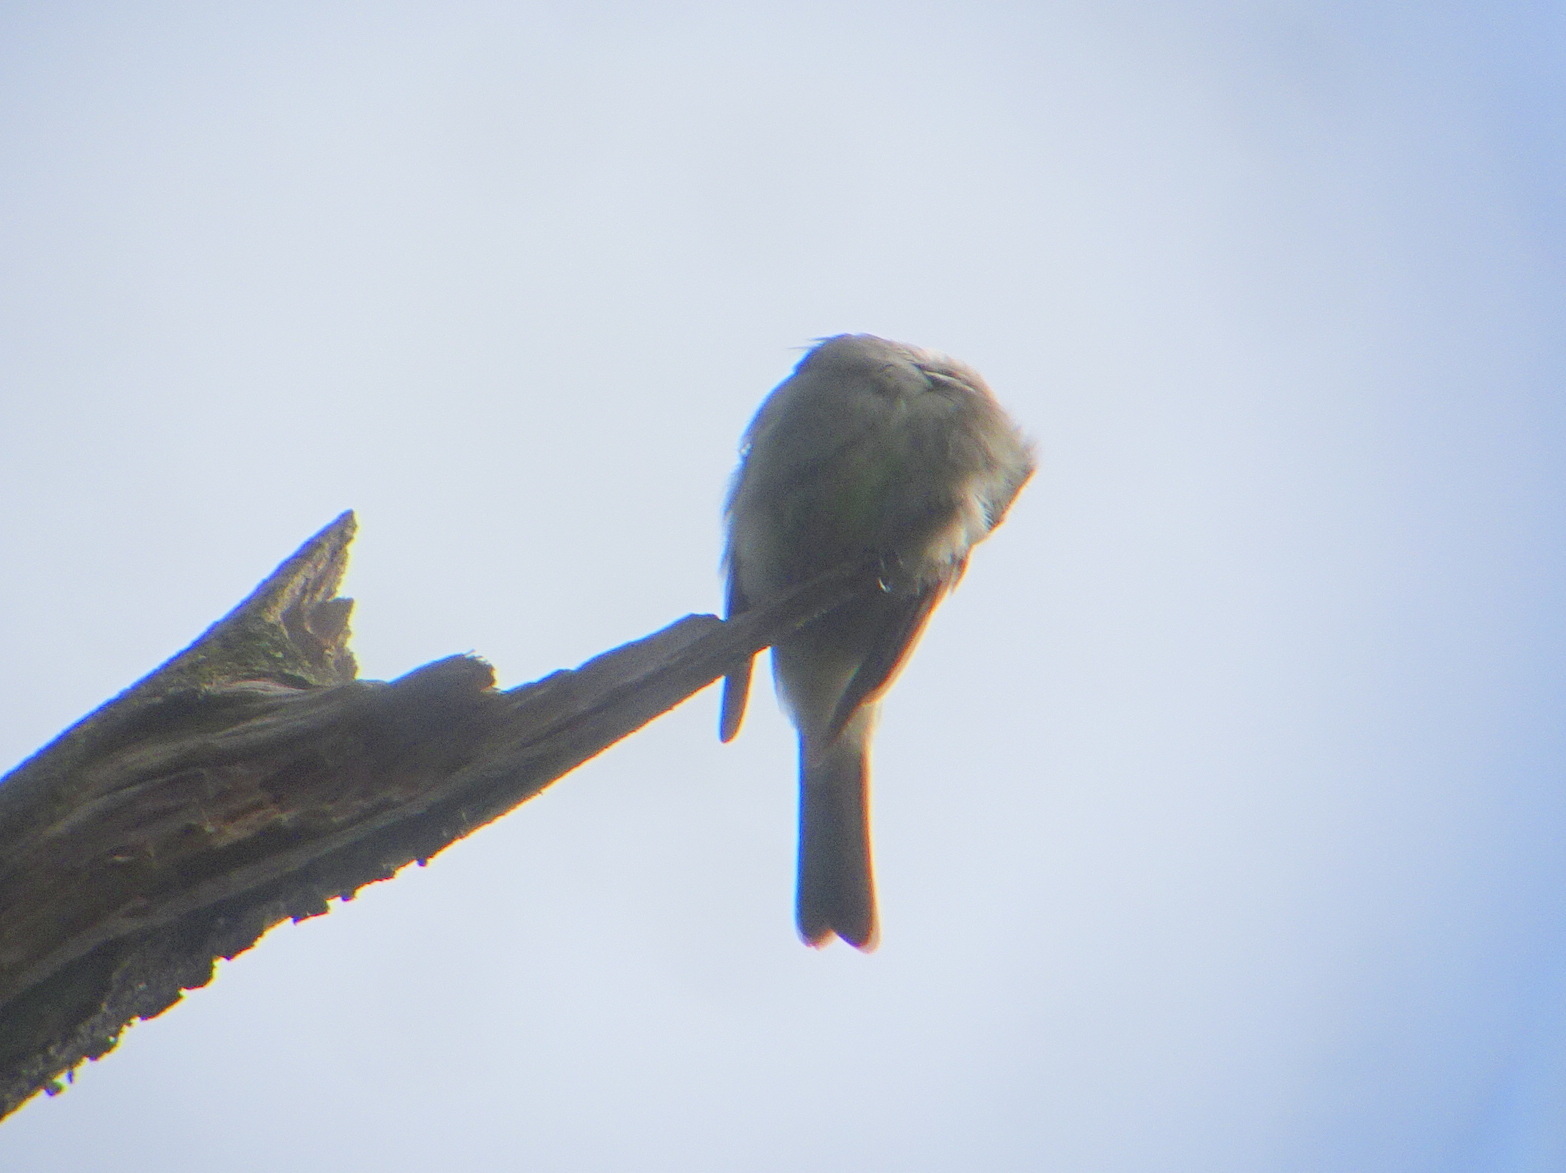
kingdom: Animalia
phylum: Chordata
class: Aves
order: Passeriformes
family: Tyrannidae
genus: Contopus
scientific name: Contopus virens
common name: Eastern wood-pewee
